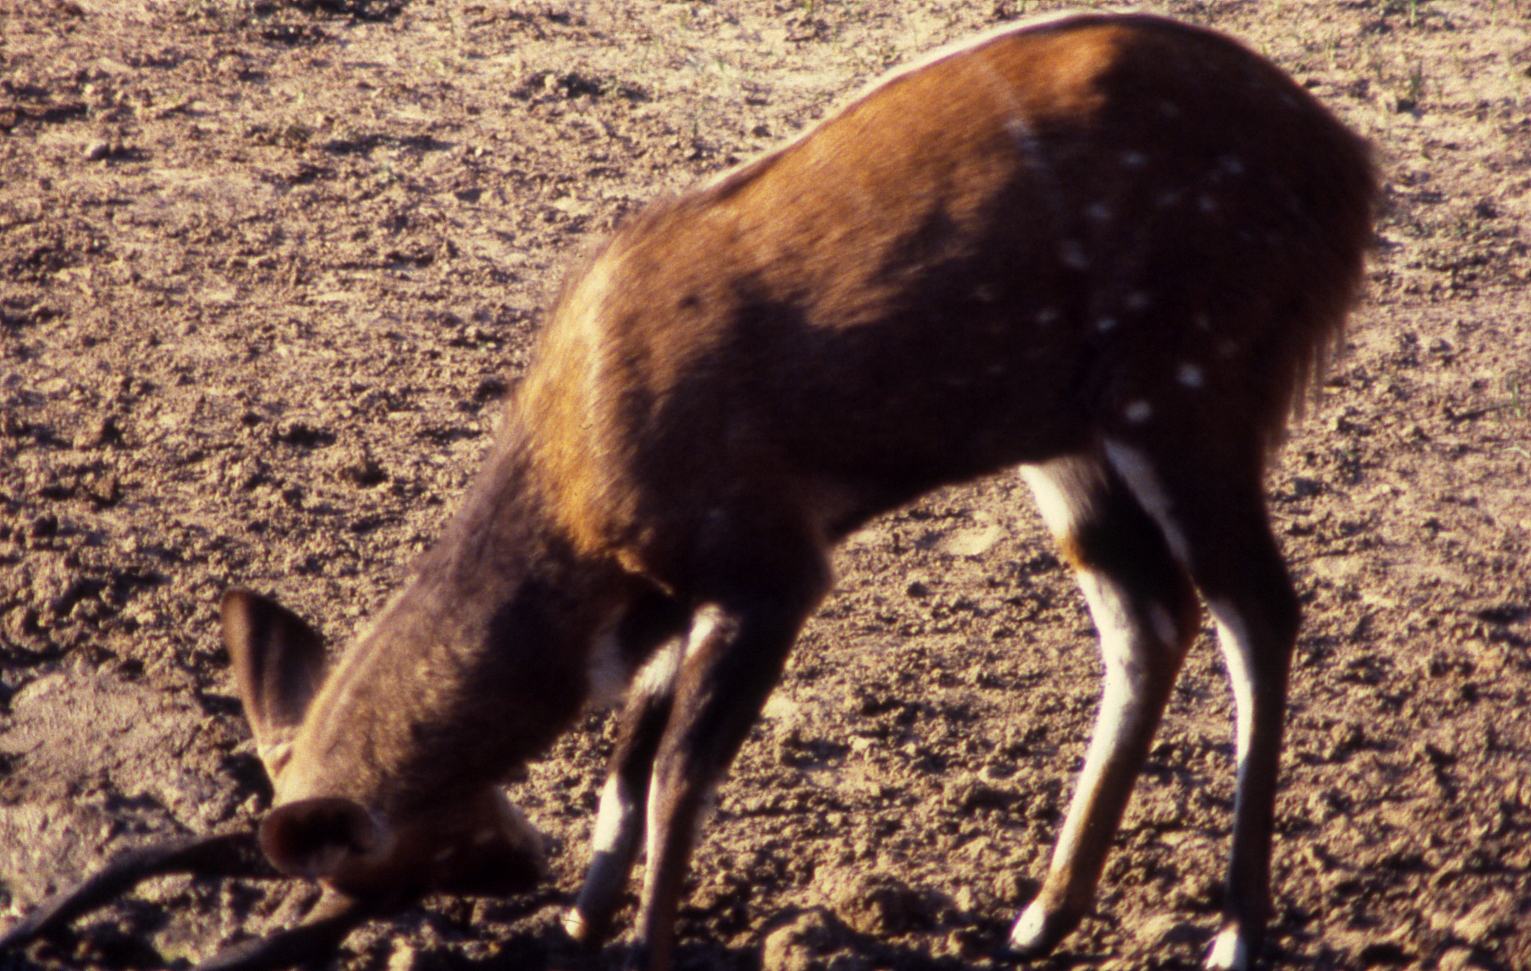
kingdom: Animalia
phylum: Chordata
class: Mammalia
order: Artiodactyla
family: Bovidae
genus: Tragelaphus
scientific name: Tragelaphus scriptus
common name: Bushbuck
